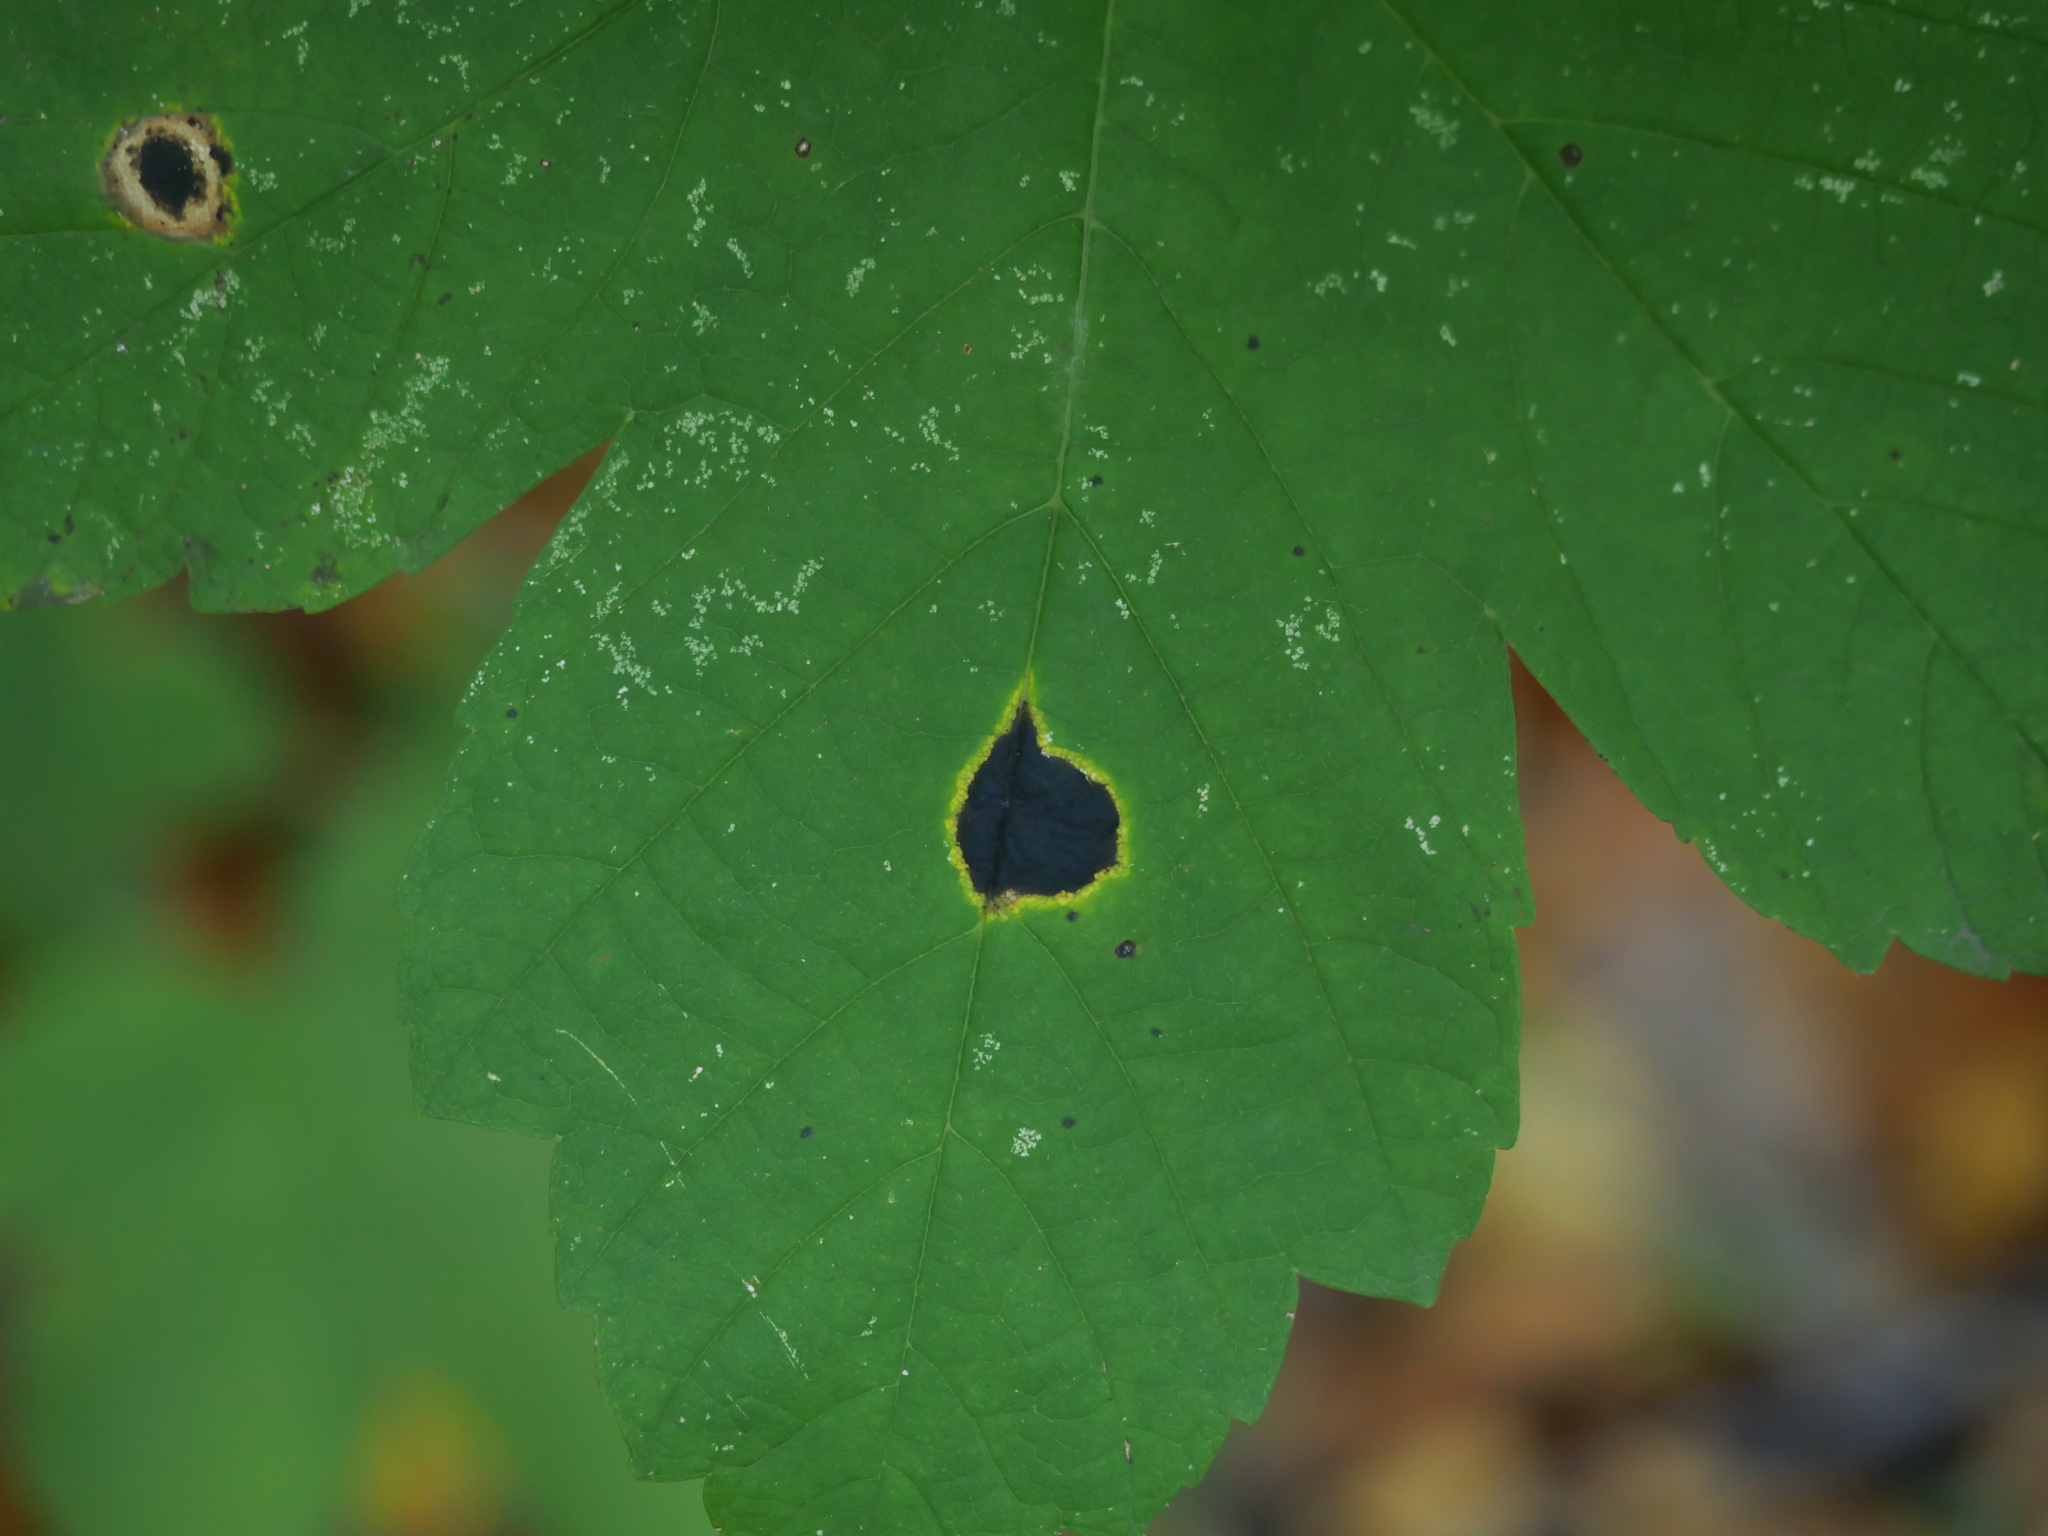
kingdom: Fungi
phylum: Ascomycota
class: Leotiomycetes
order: Rhytismatales
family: Rhytismataceae
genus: Rhytisma
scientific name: Rhytisma acerinum
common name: European tar spot
